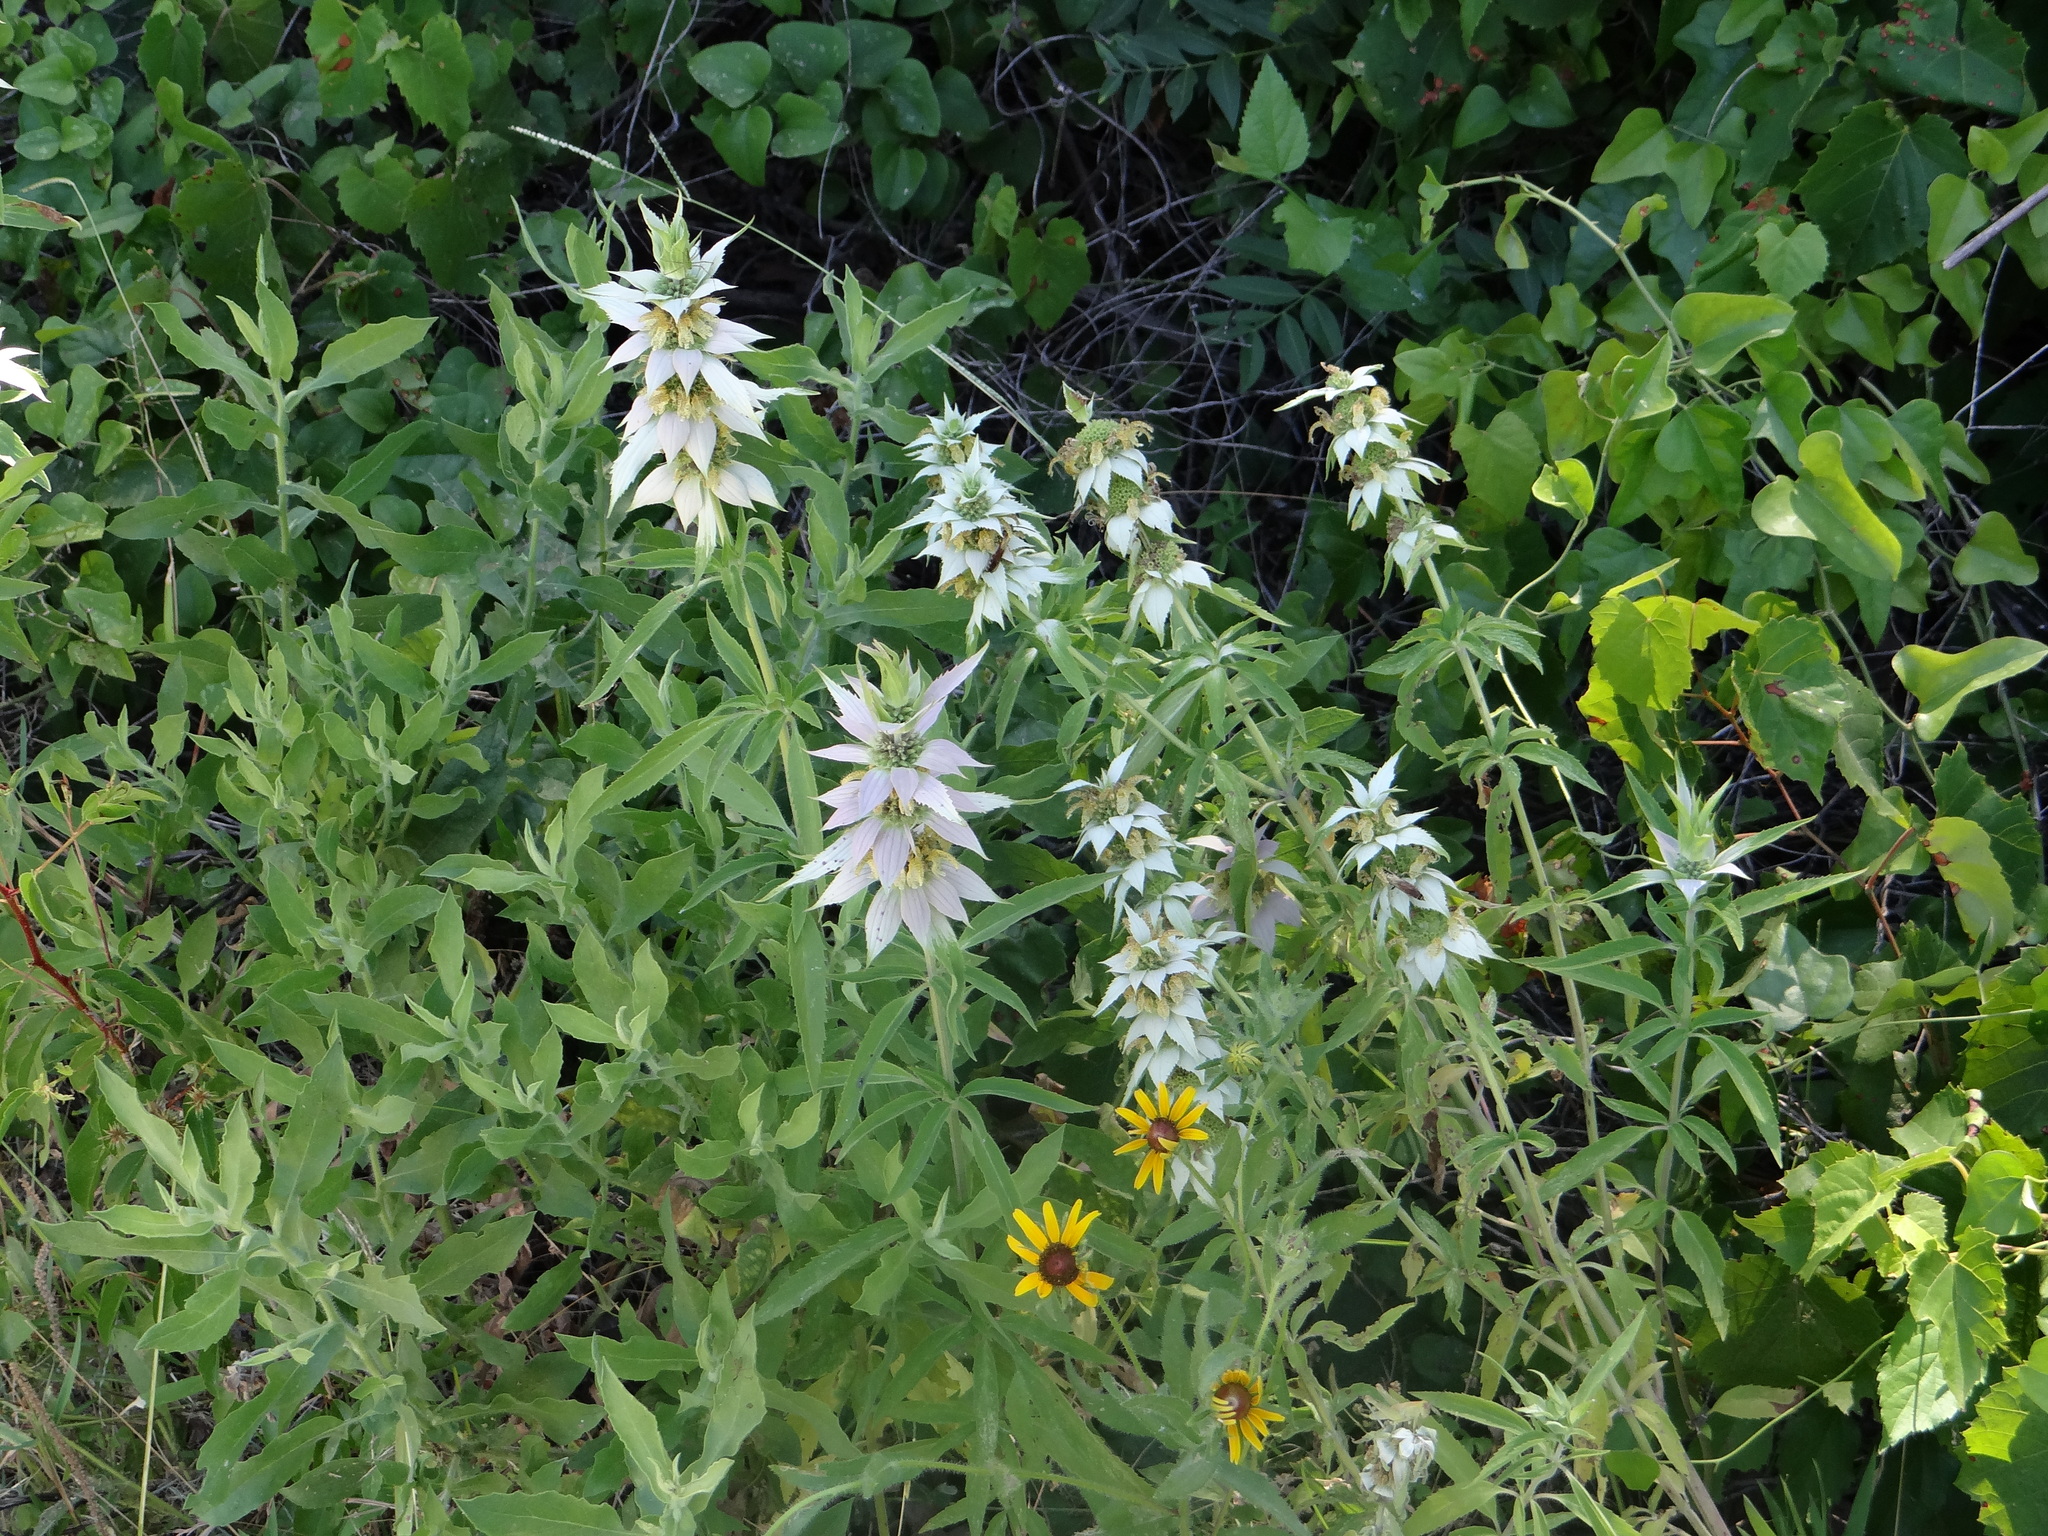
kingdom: Plantae
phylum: Tracheophyta
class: Magnoliopsida
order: Lamiales
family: Lamiaceae
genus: Monarda
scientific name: Monarda punctata
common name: Dotted monarda
